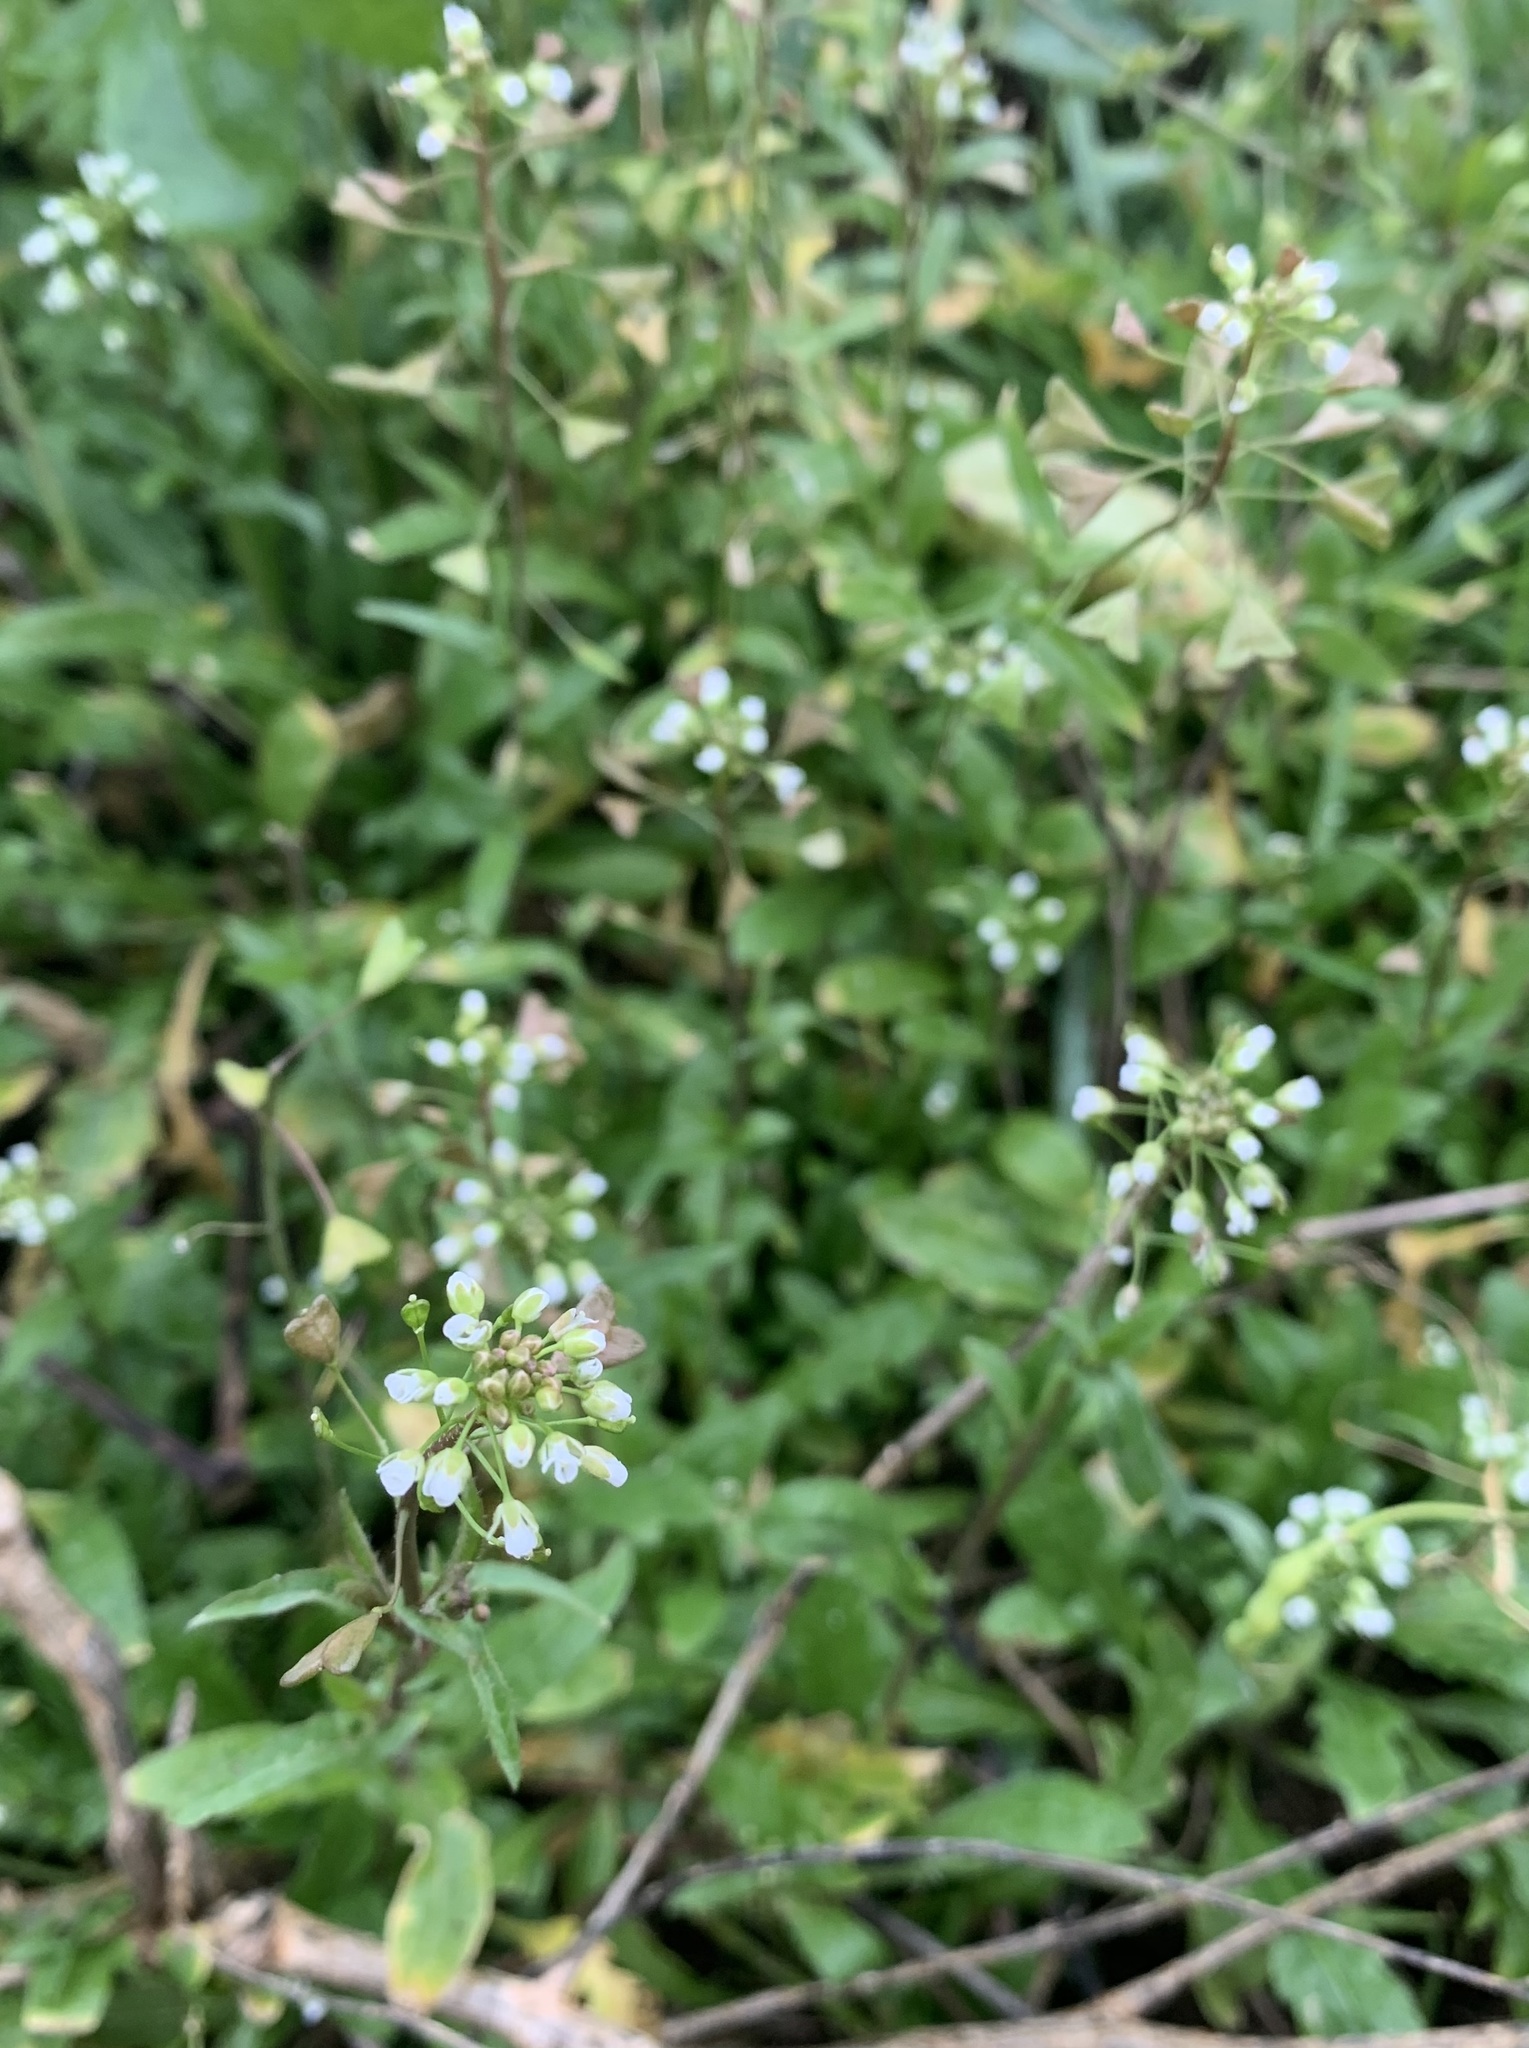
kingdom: Plantae
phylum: Tracheophyta
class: Magnoliopsida
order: Brassicales
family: Brassicaceae
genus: Capsella
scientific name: Capsella bursa-pastoris
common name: Shepherd's purse
